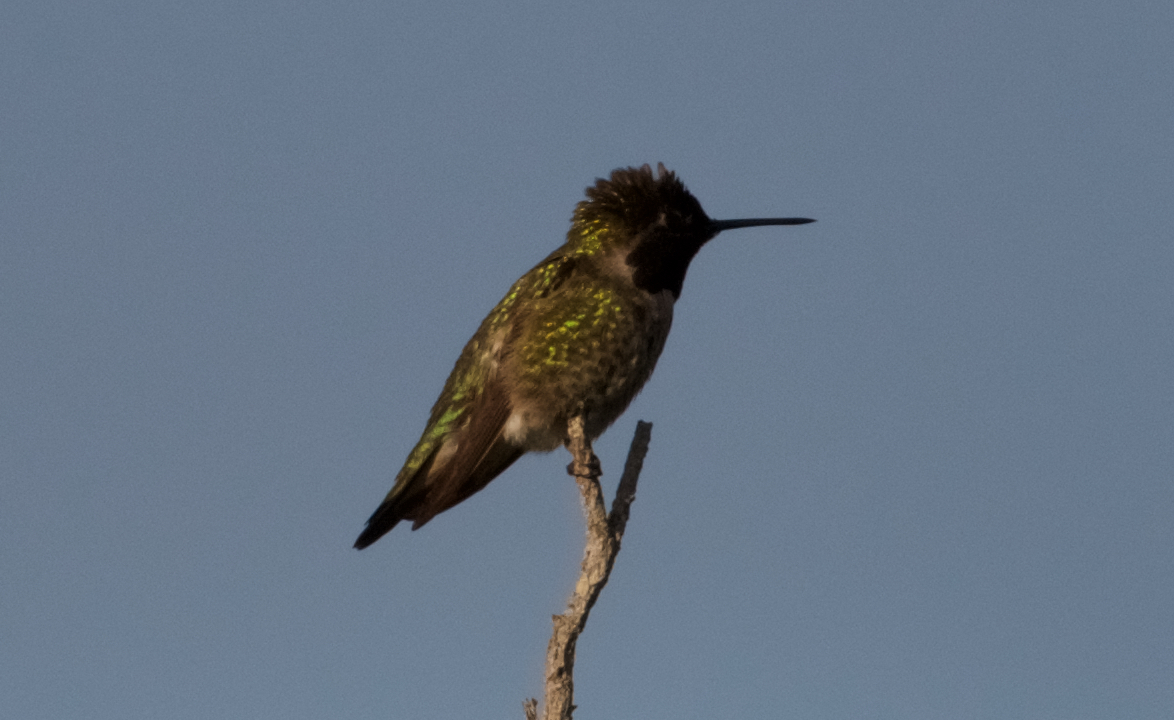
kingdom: Animalia
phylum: Chordata
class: Aves
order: Apodiformes
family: Trochilidae
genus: Calypte
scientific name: Calypte anna
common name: Anna's hummingbird
